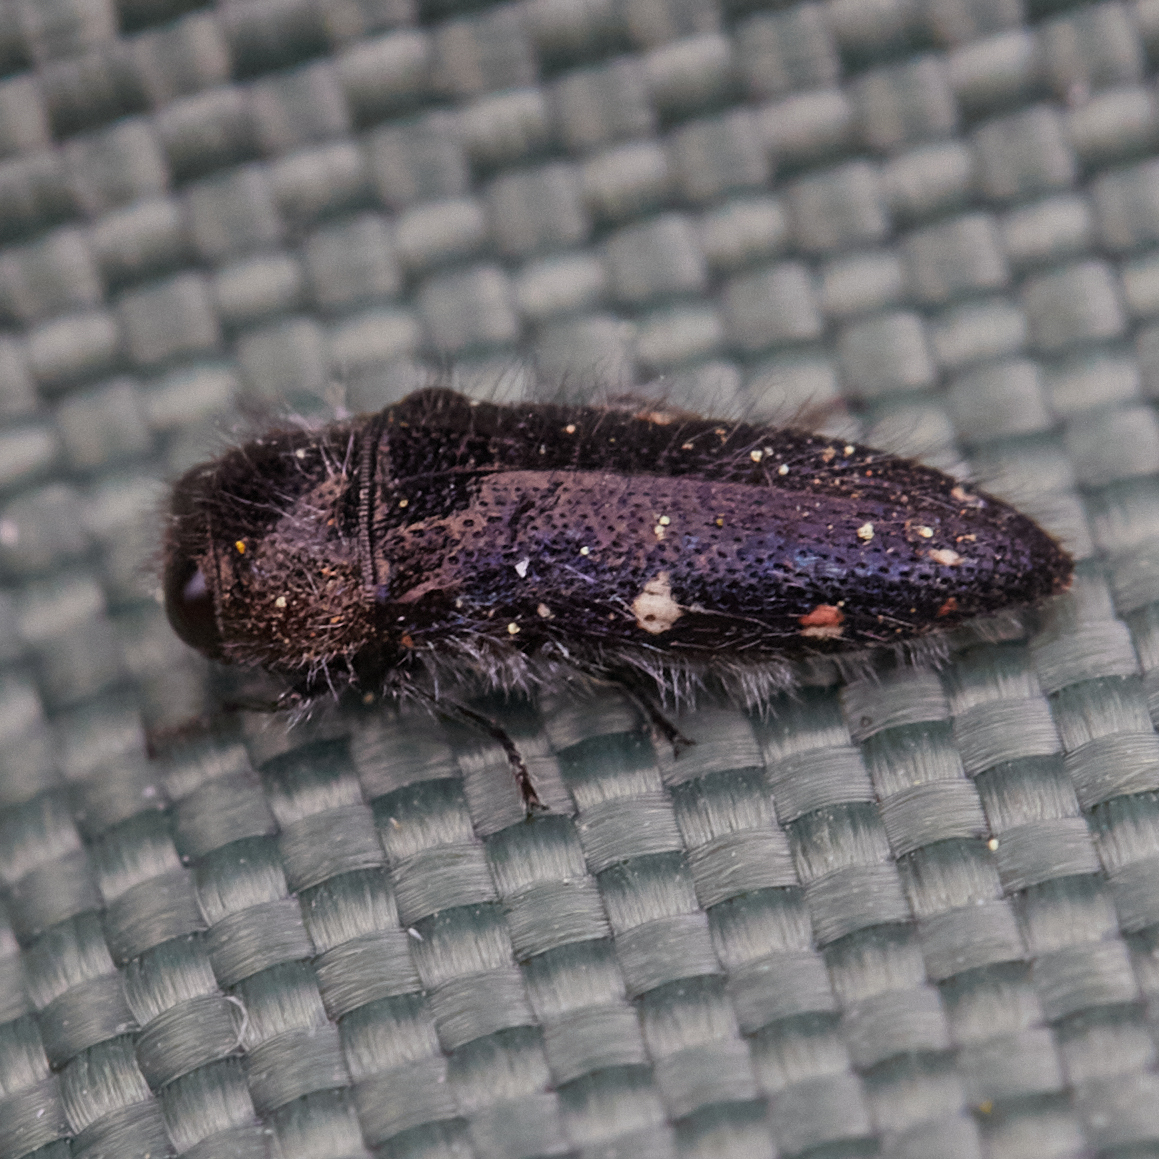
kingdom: Animalia
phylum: Arthropoda
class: Insecta
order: Coleoptera
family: Buprestidae
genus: Acmaeodera
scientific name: Acmaeodera dolorosa
